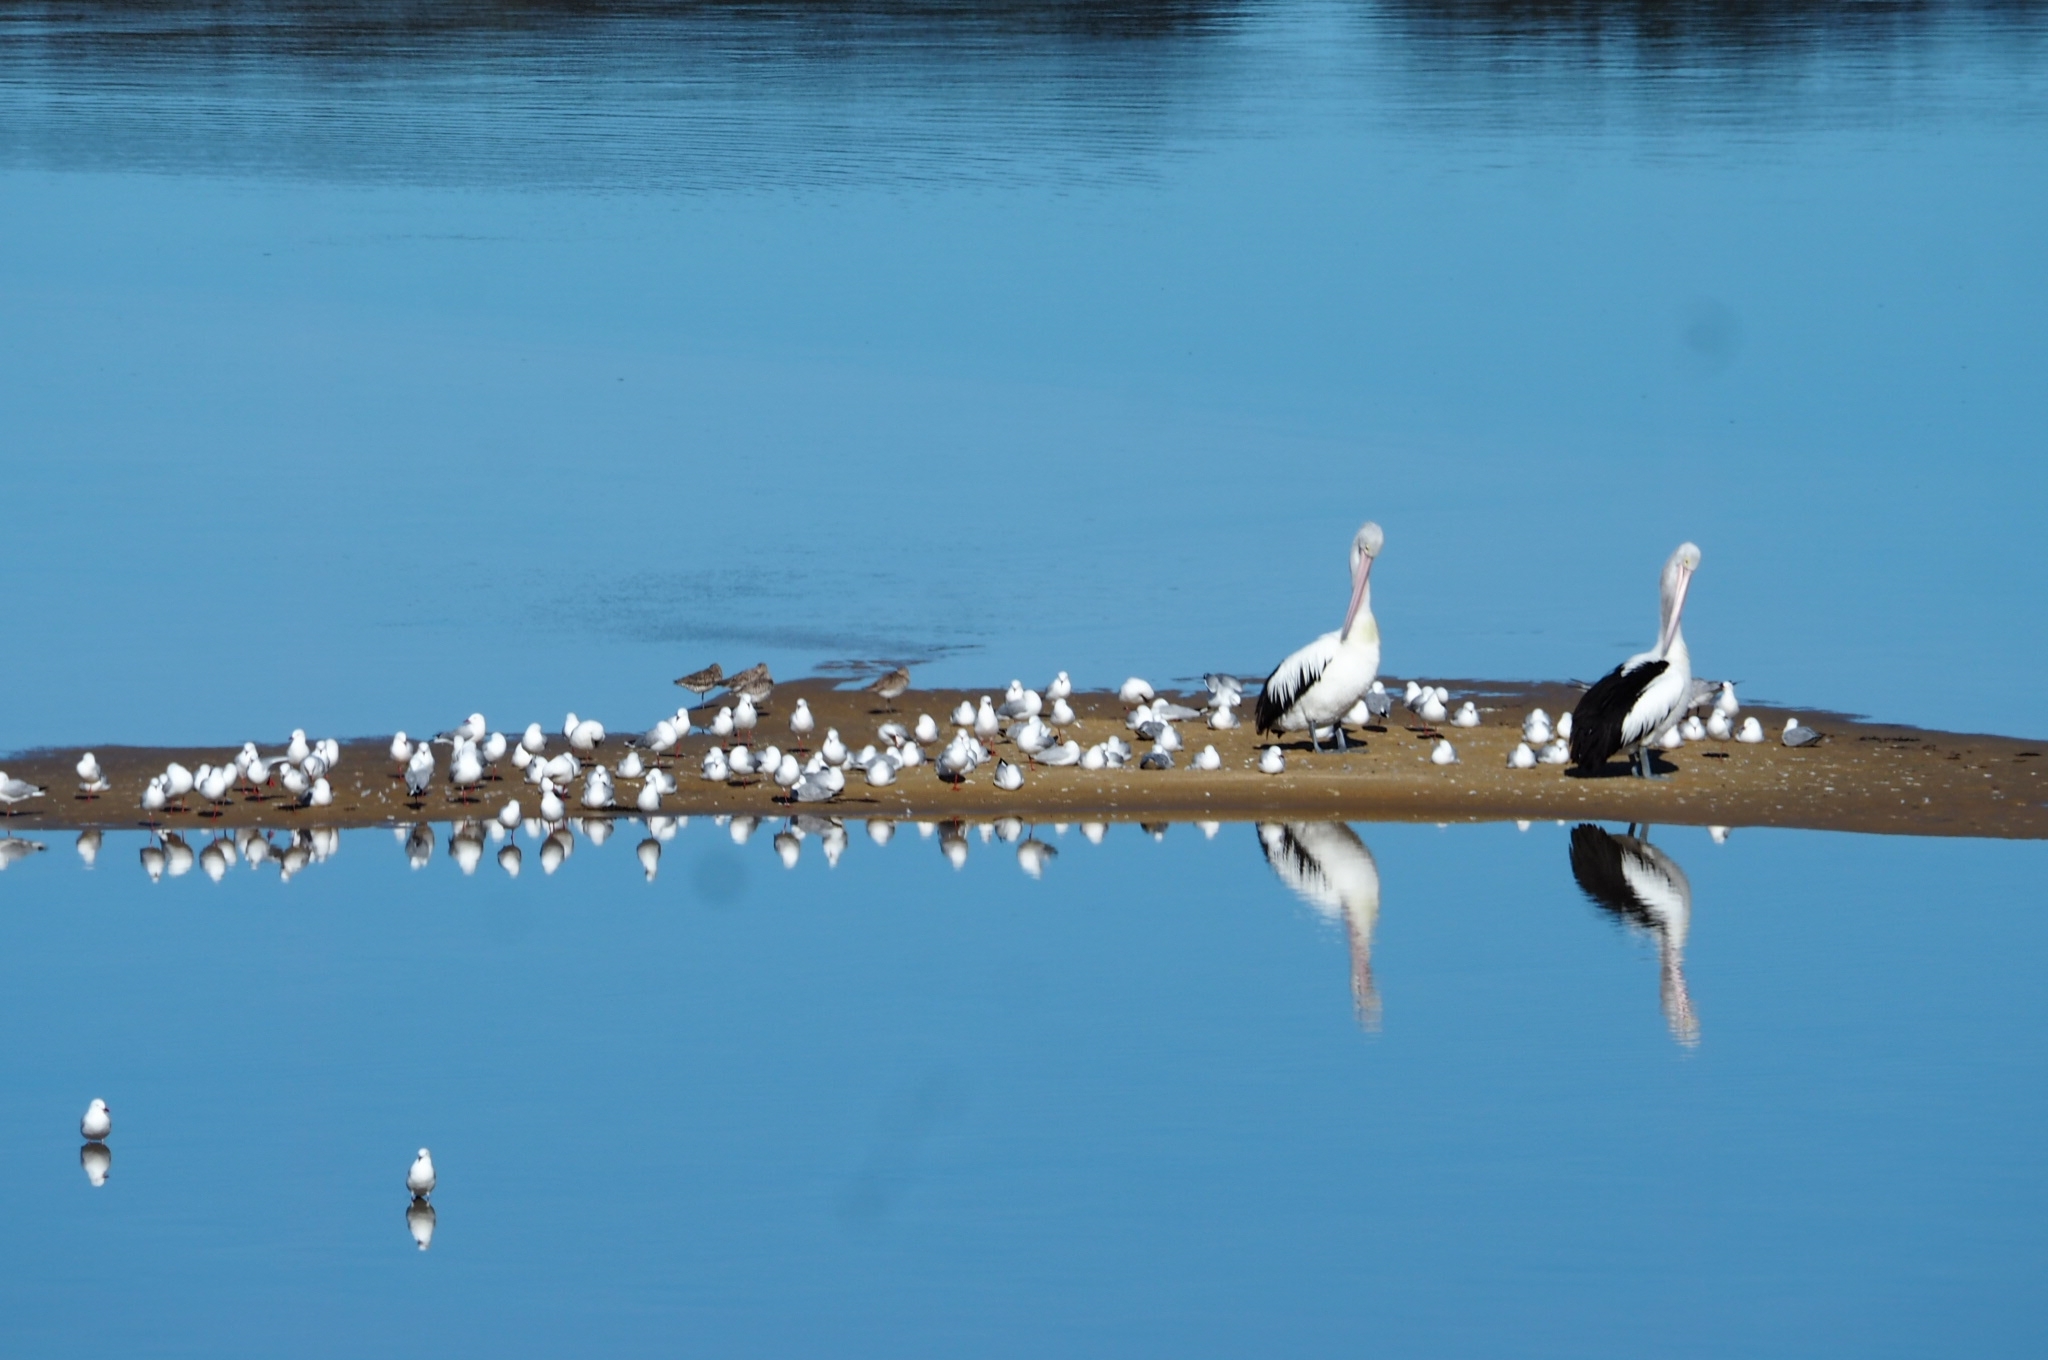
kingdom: Animalia
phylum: Chordata
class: Aves
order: Pelecaniformes
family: Pelecanidae
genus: Pelecanus
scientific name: Pelecanus conspicillatus
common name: Australian pelican
